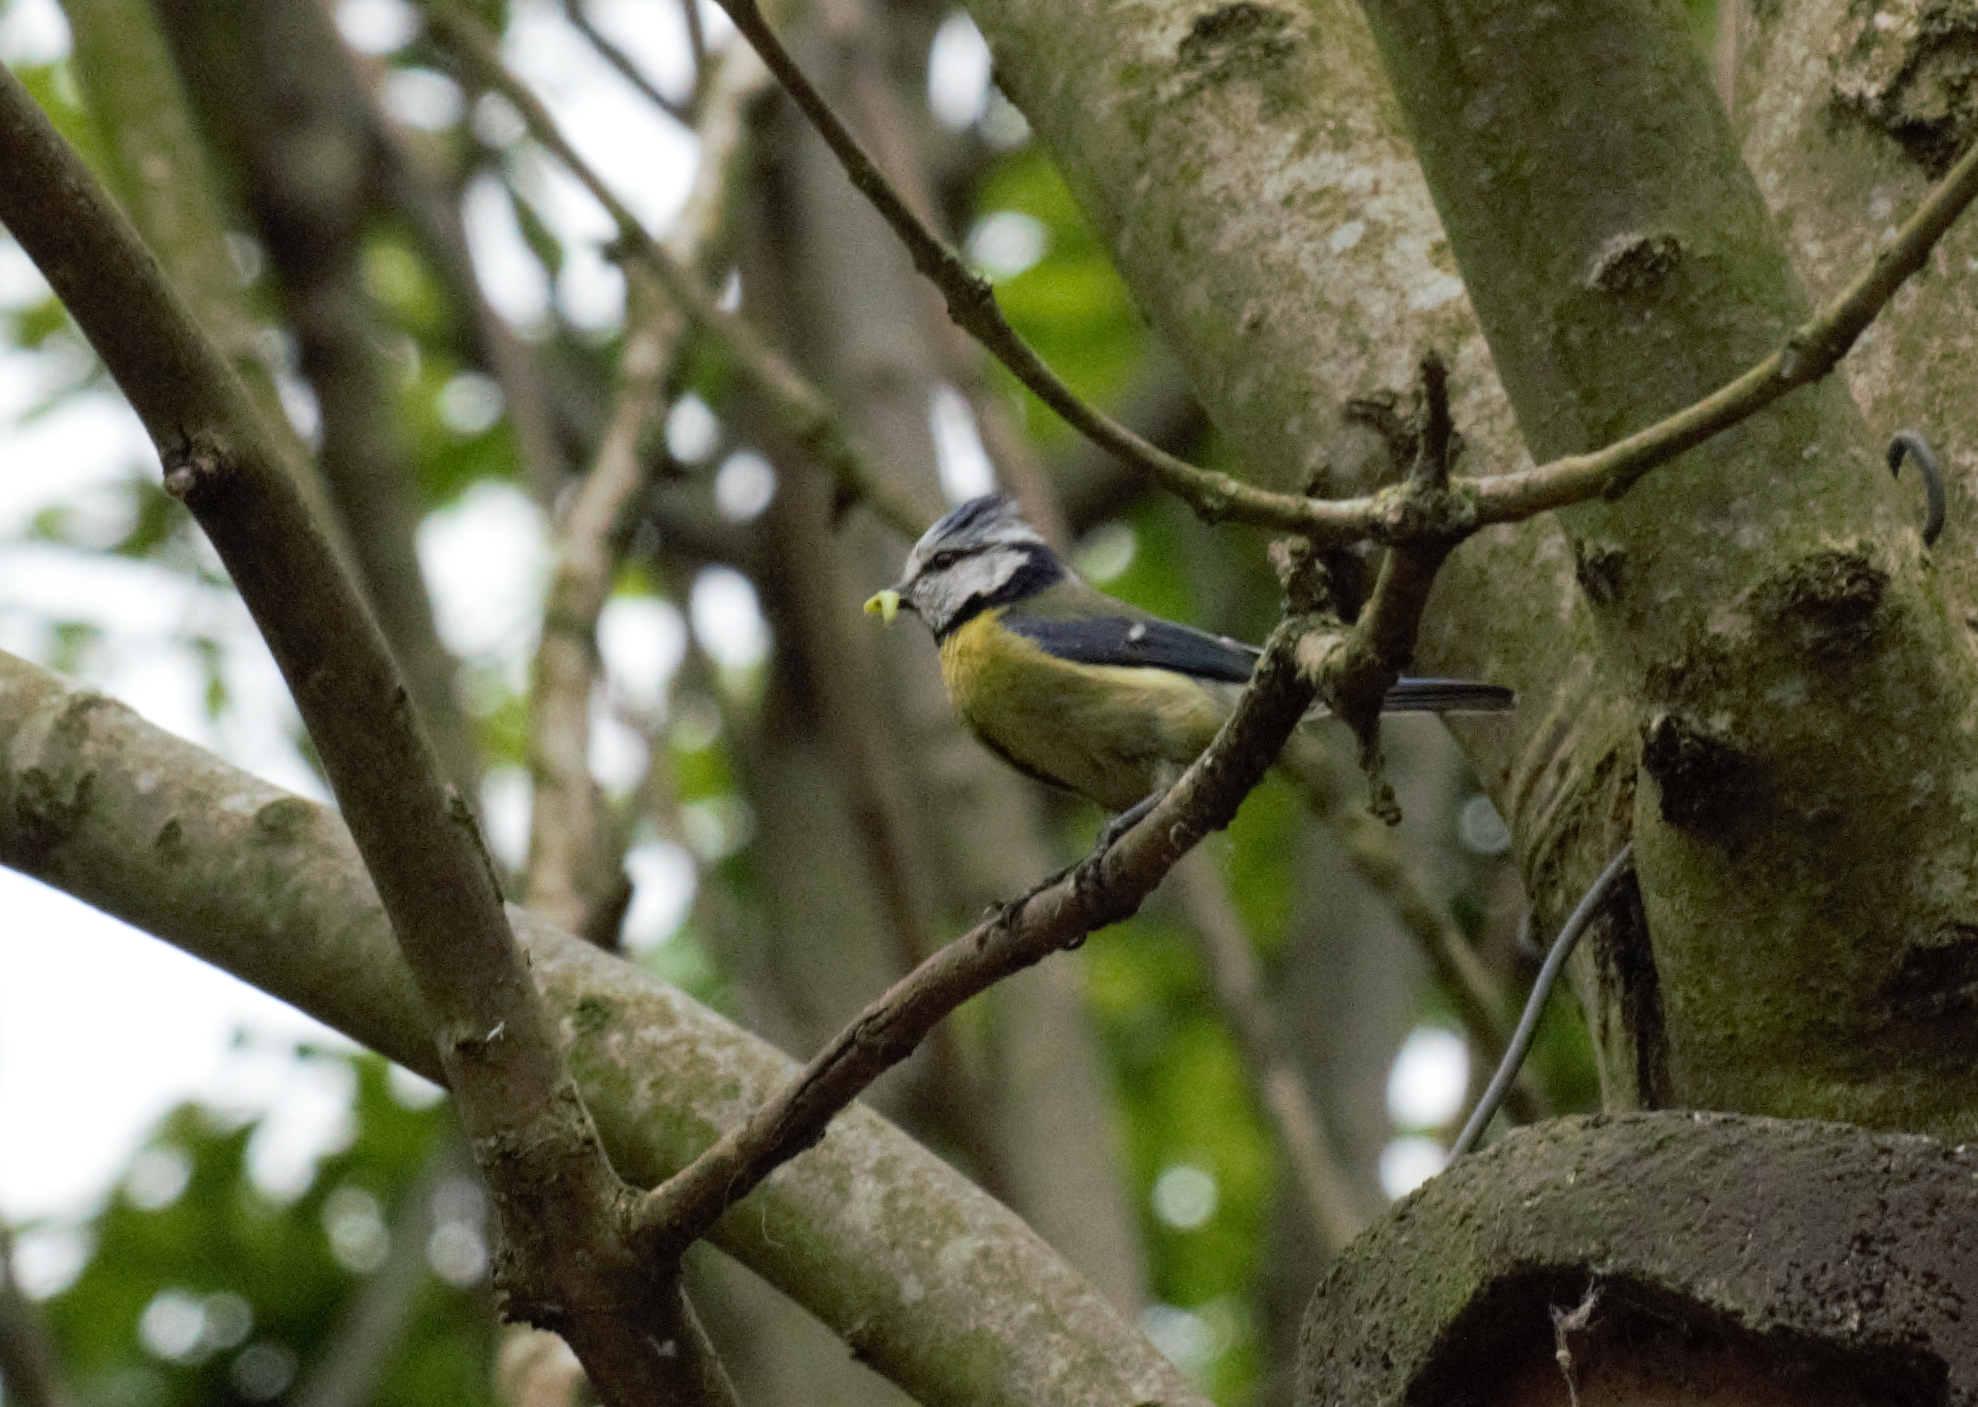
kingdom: Animalia
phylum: Chordata
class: Aves
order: Passeriformes
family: Paridae
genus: Cyanistes
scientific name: Cyanistes caeruleus
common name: Eurasian blue tit
